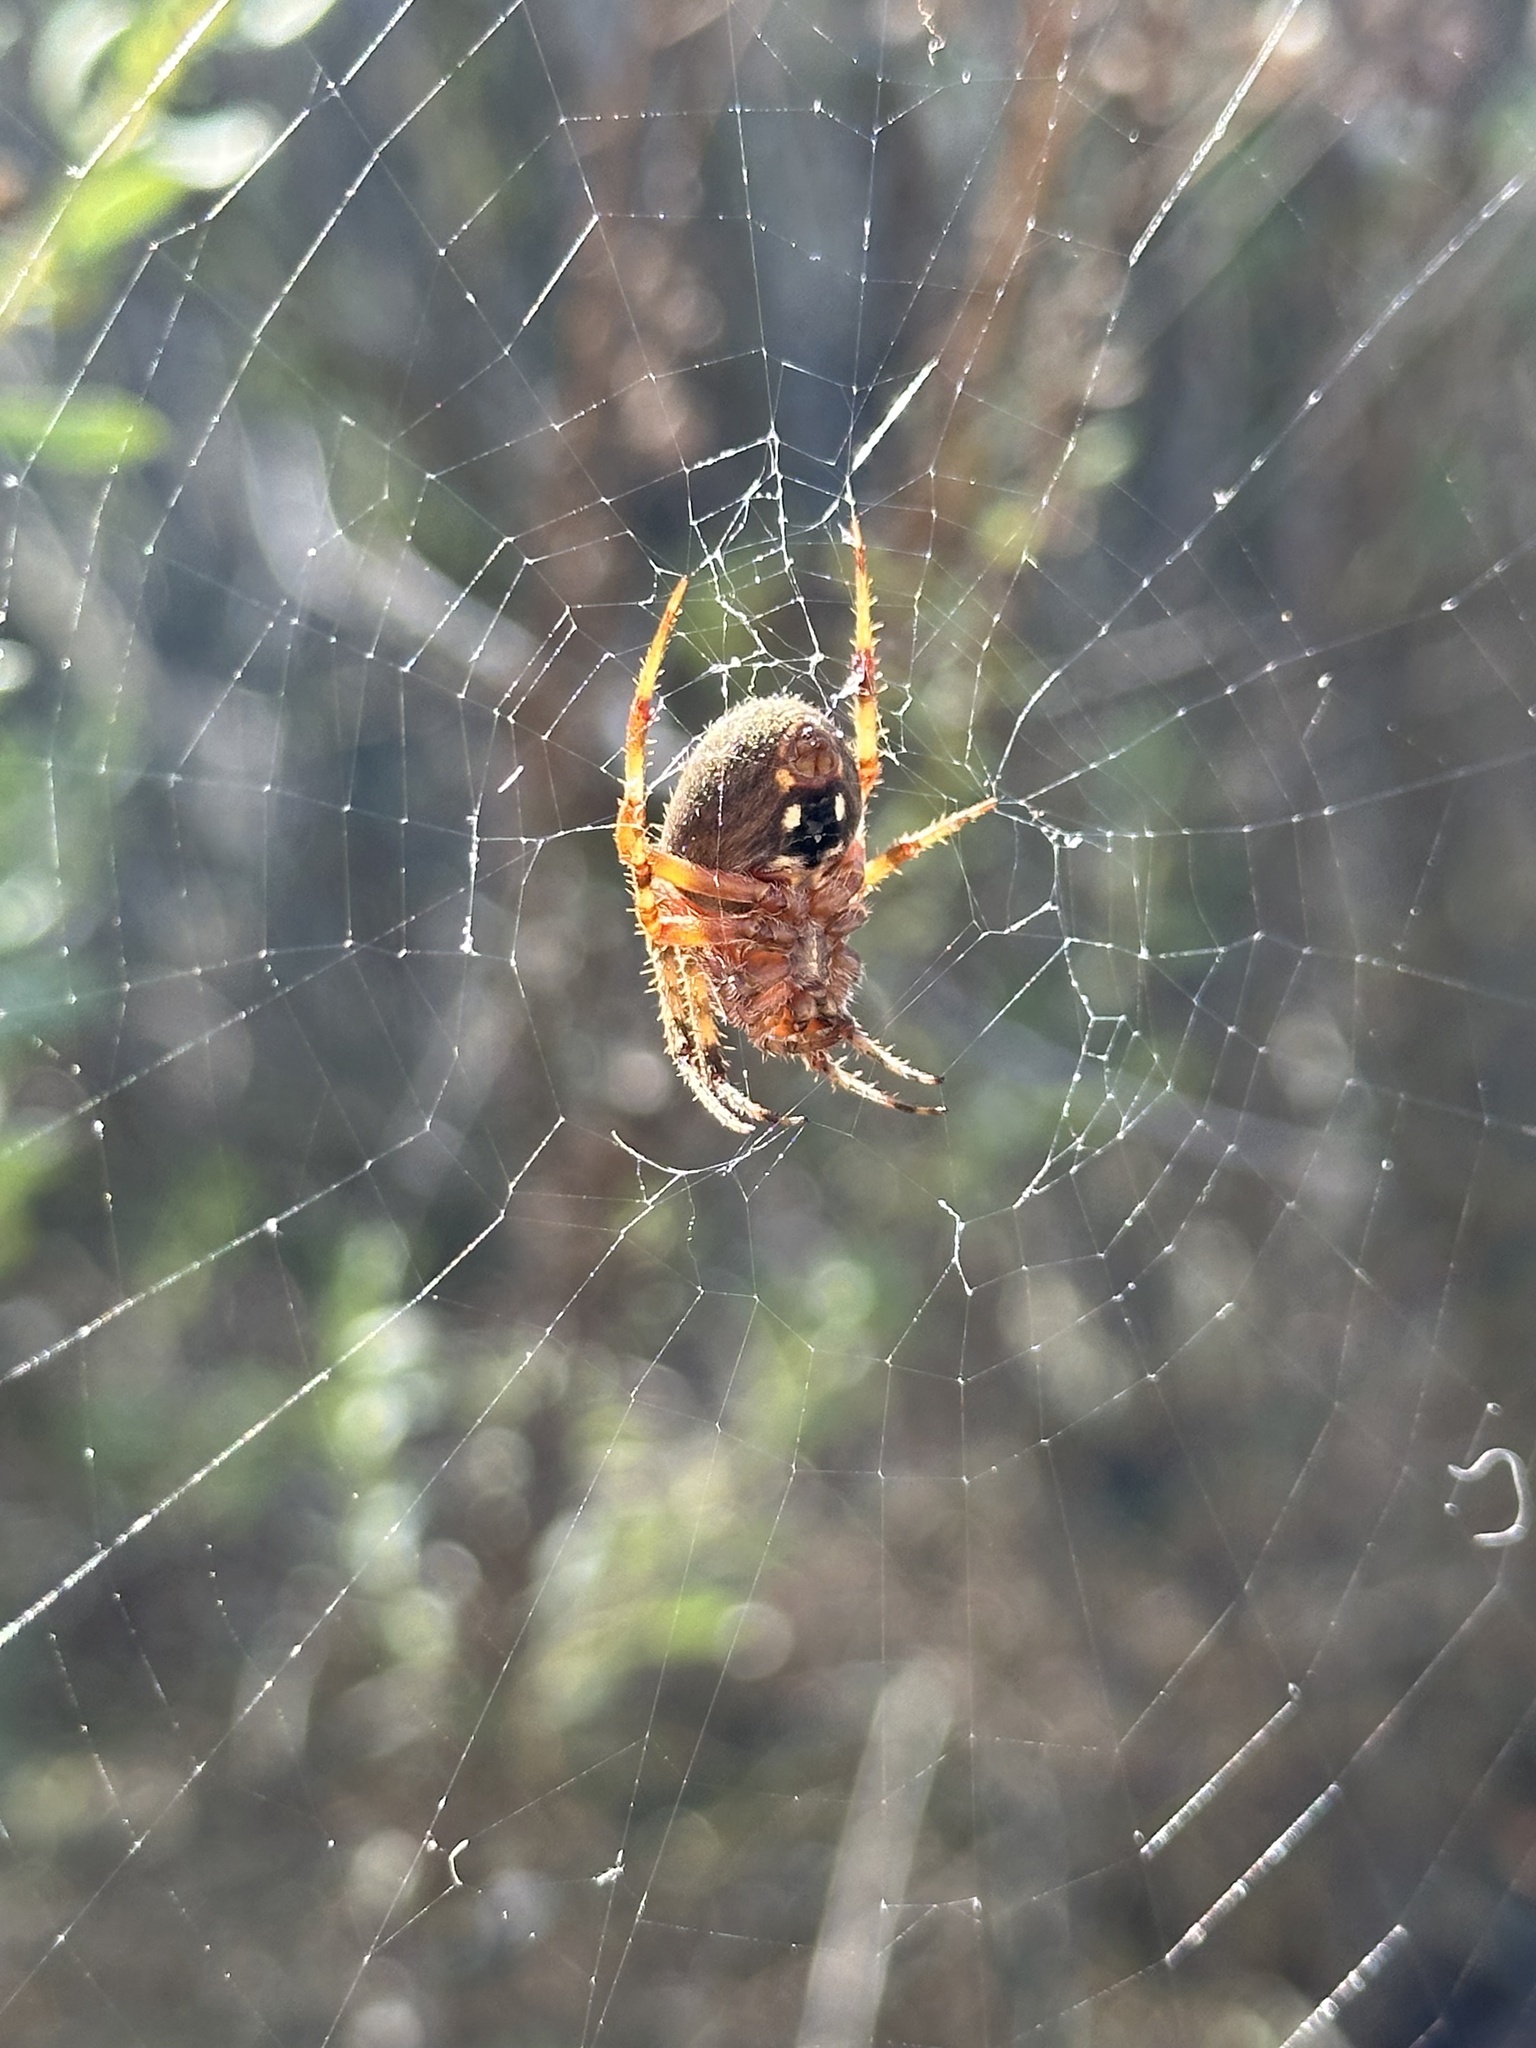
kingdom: Animalia
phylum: Arthropoda
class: Arachnida
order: Araneae
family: Araneidae
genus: Neoscona
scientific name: Neoscona crucifera
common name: Spotted orbweaver
